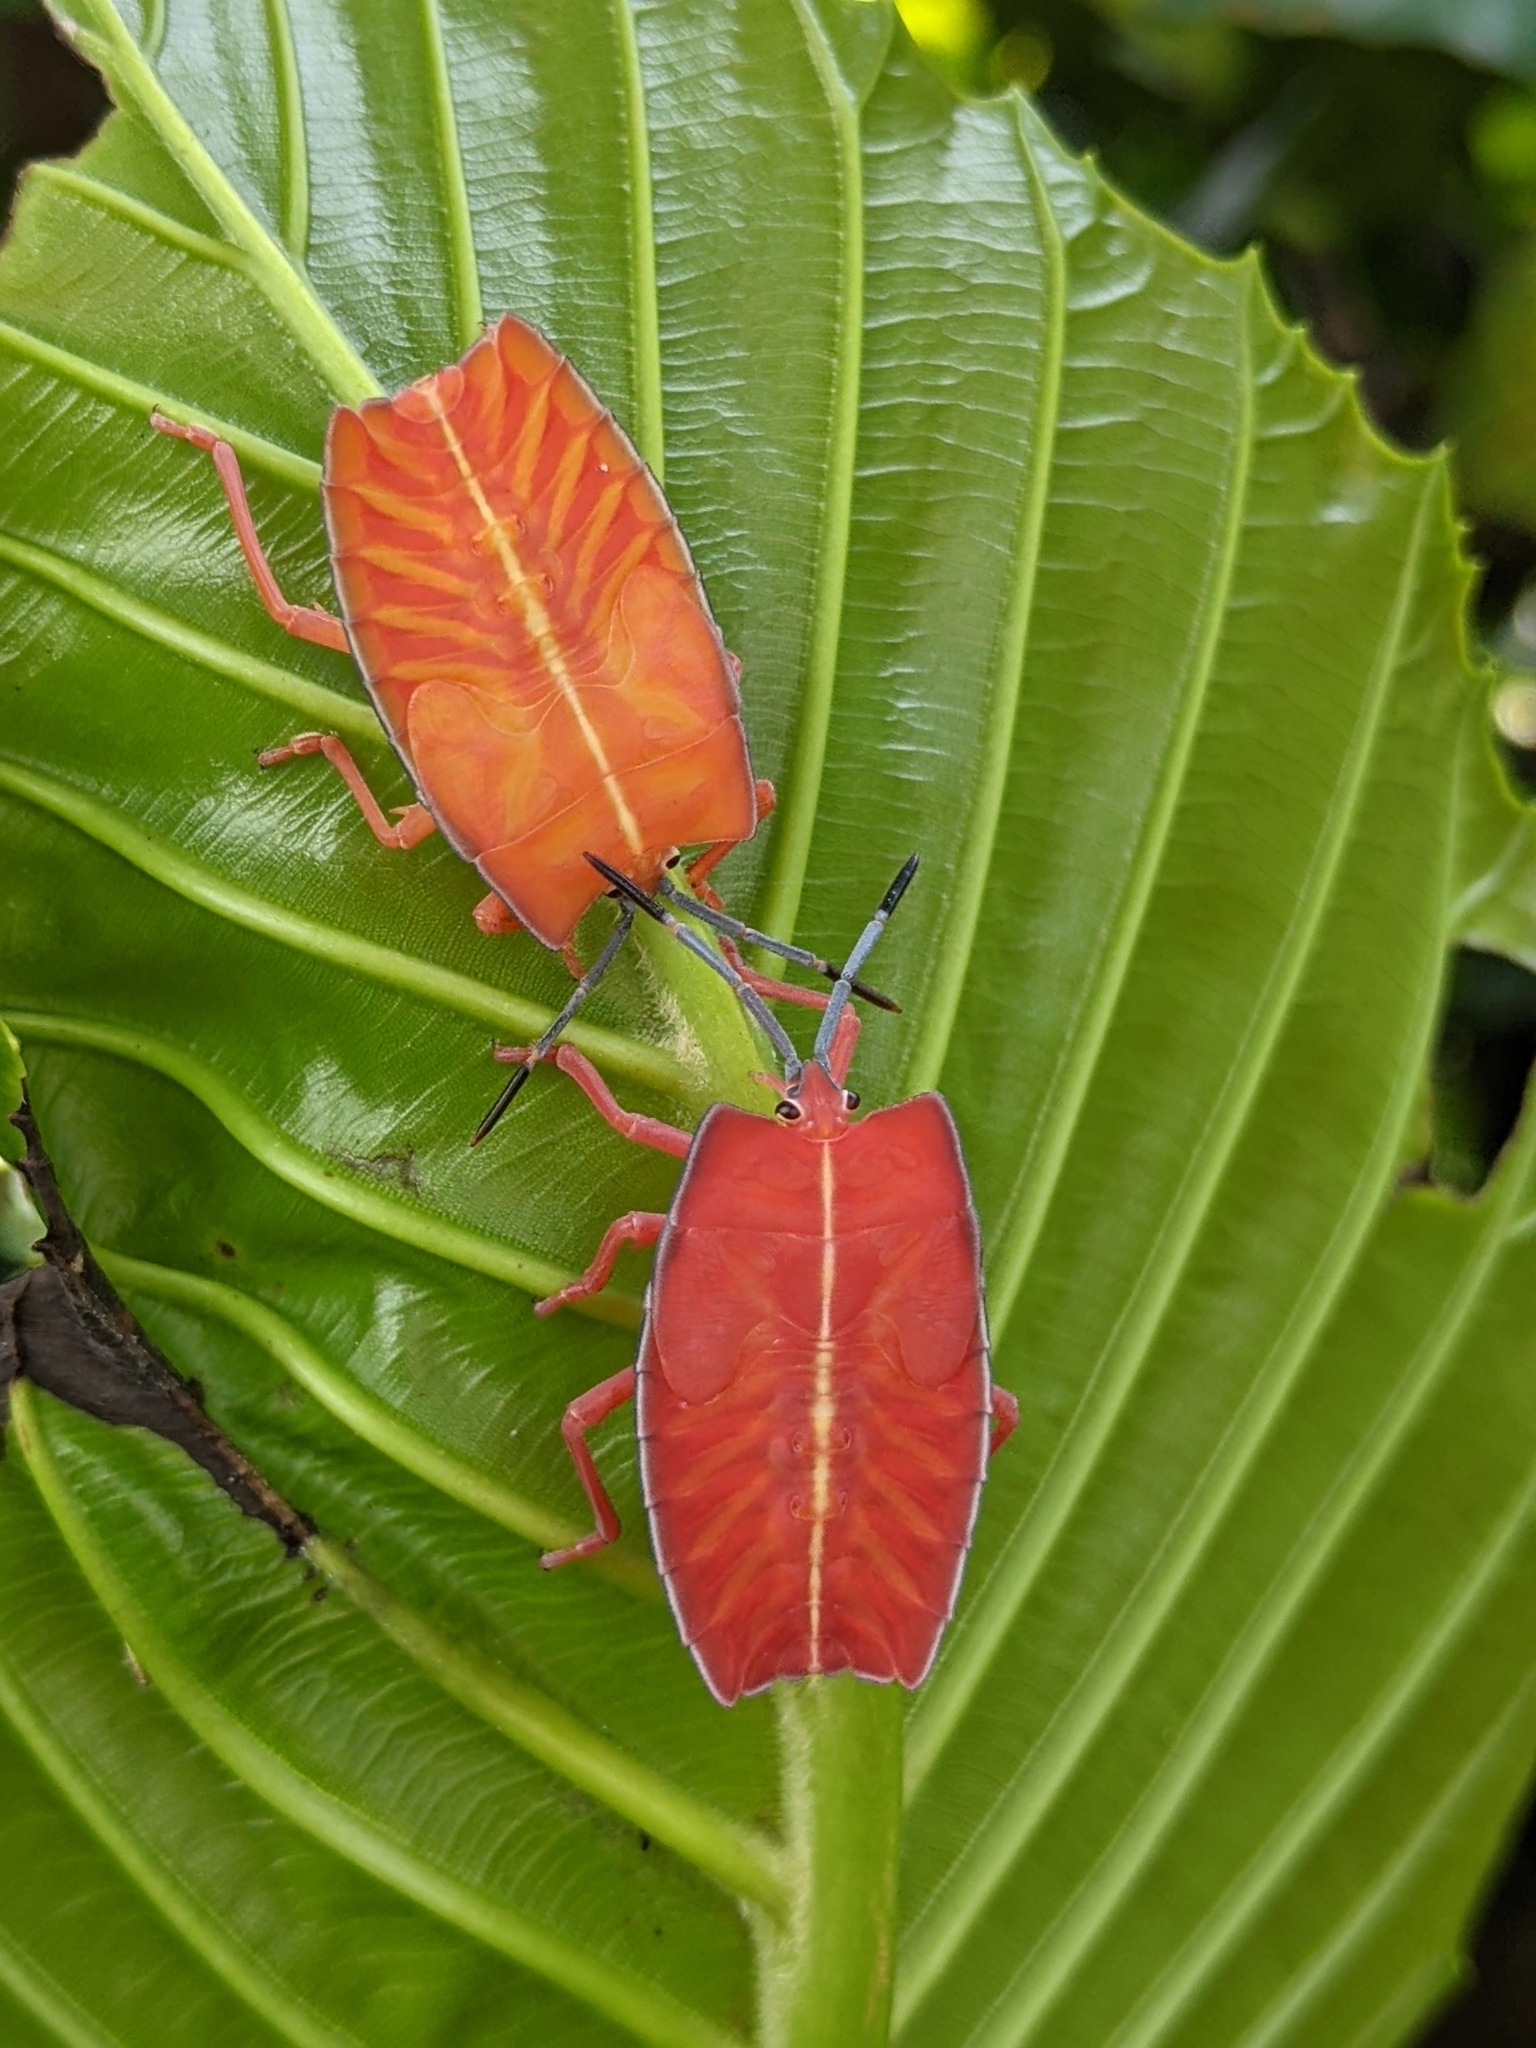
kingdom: Animalia
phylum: Arthropoda
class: Insecta
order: Hemiptera
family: Tessaratomidae
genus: Pycanum
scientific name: Pycanum alternatum
